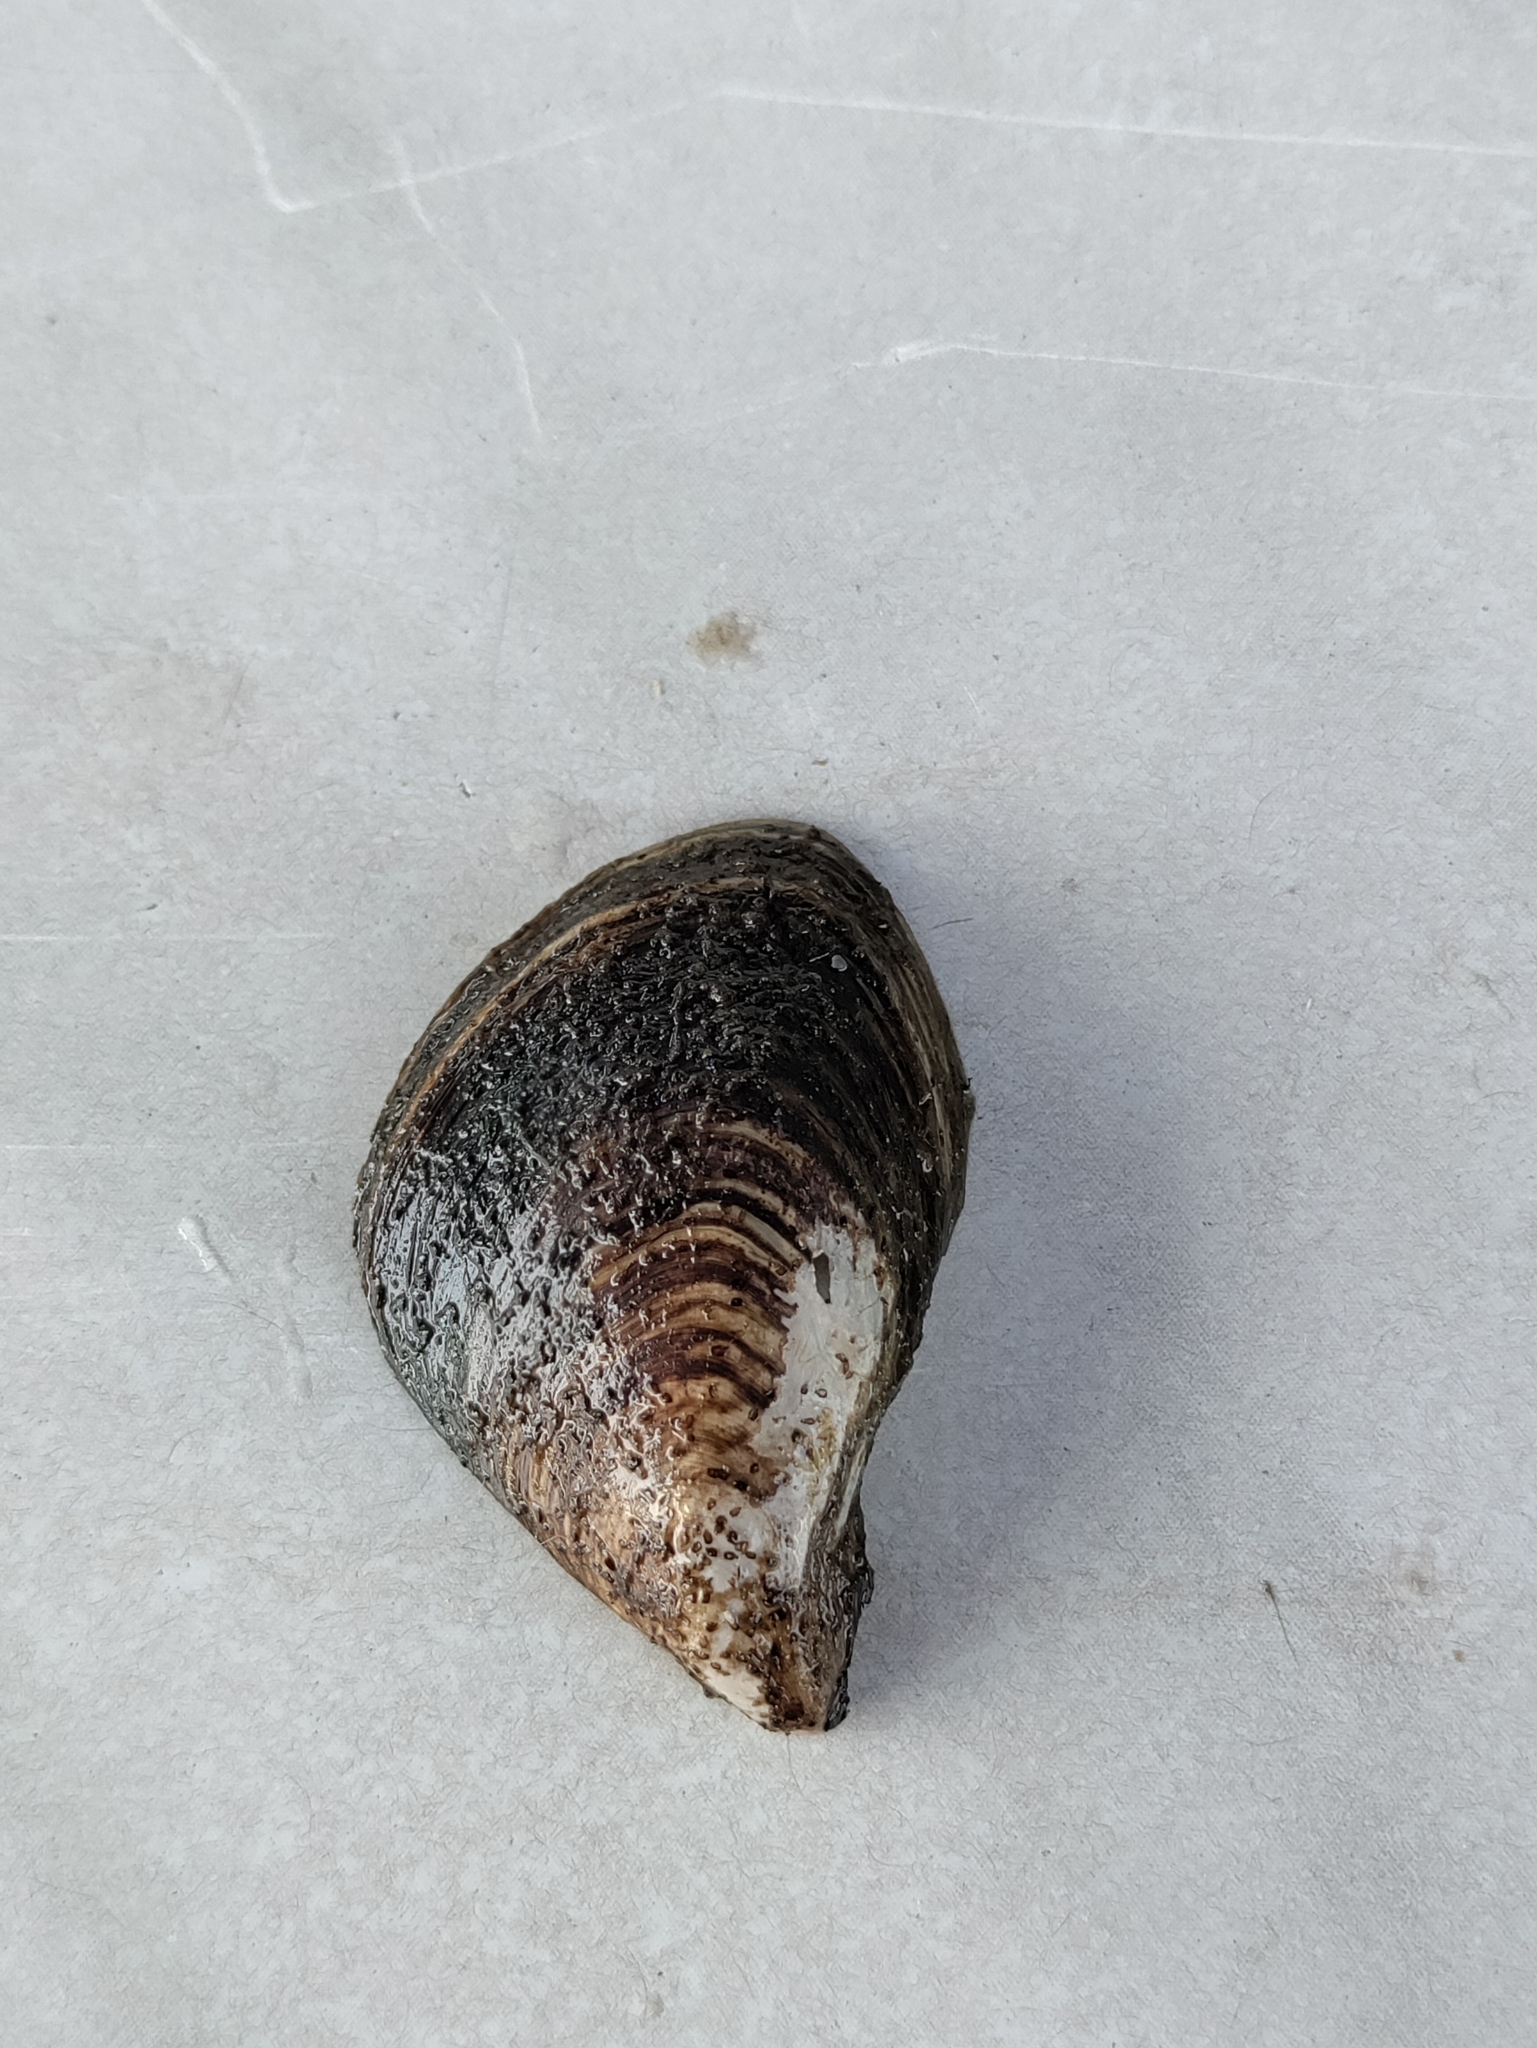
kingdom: Animalia
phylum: Mollusca
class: Bivalvia
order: Myida
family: Dreissenidae
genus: Dreissena
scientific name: Dreissena bugensis
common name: Quagga mussel
